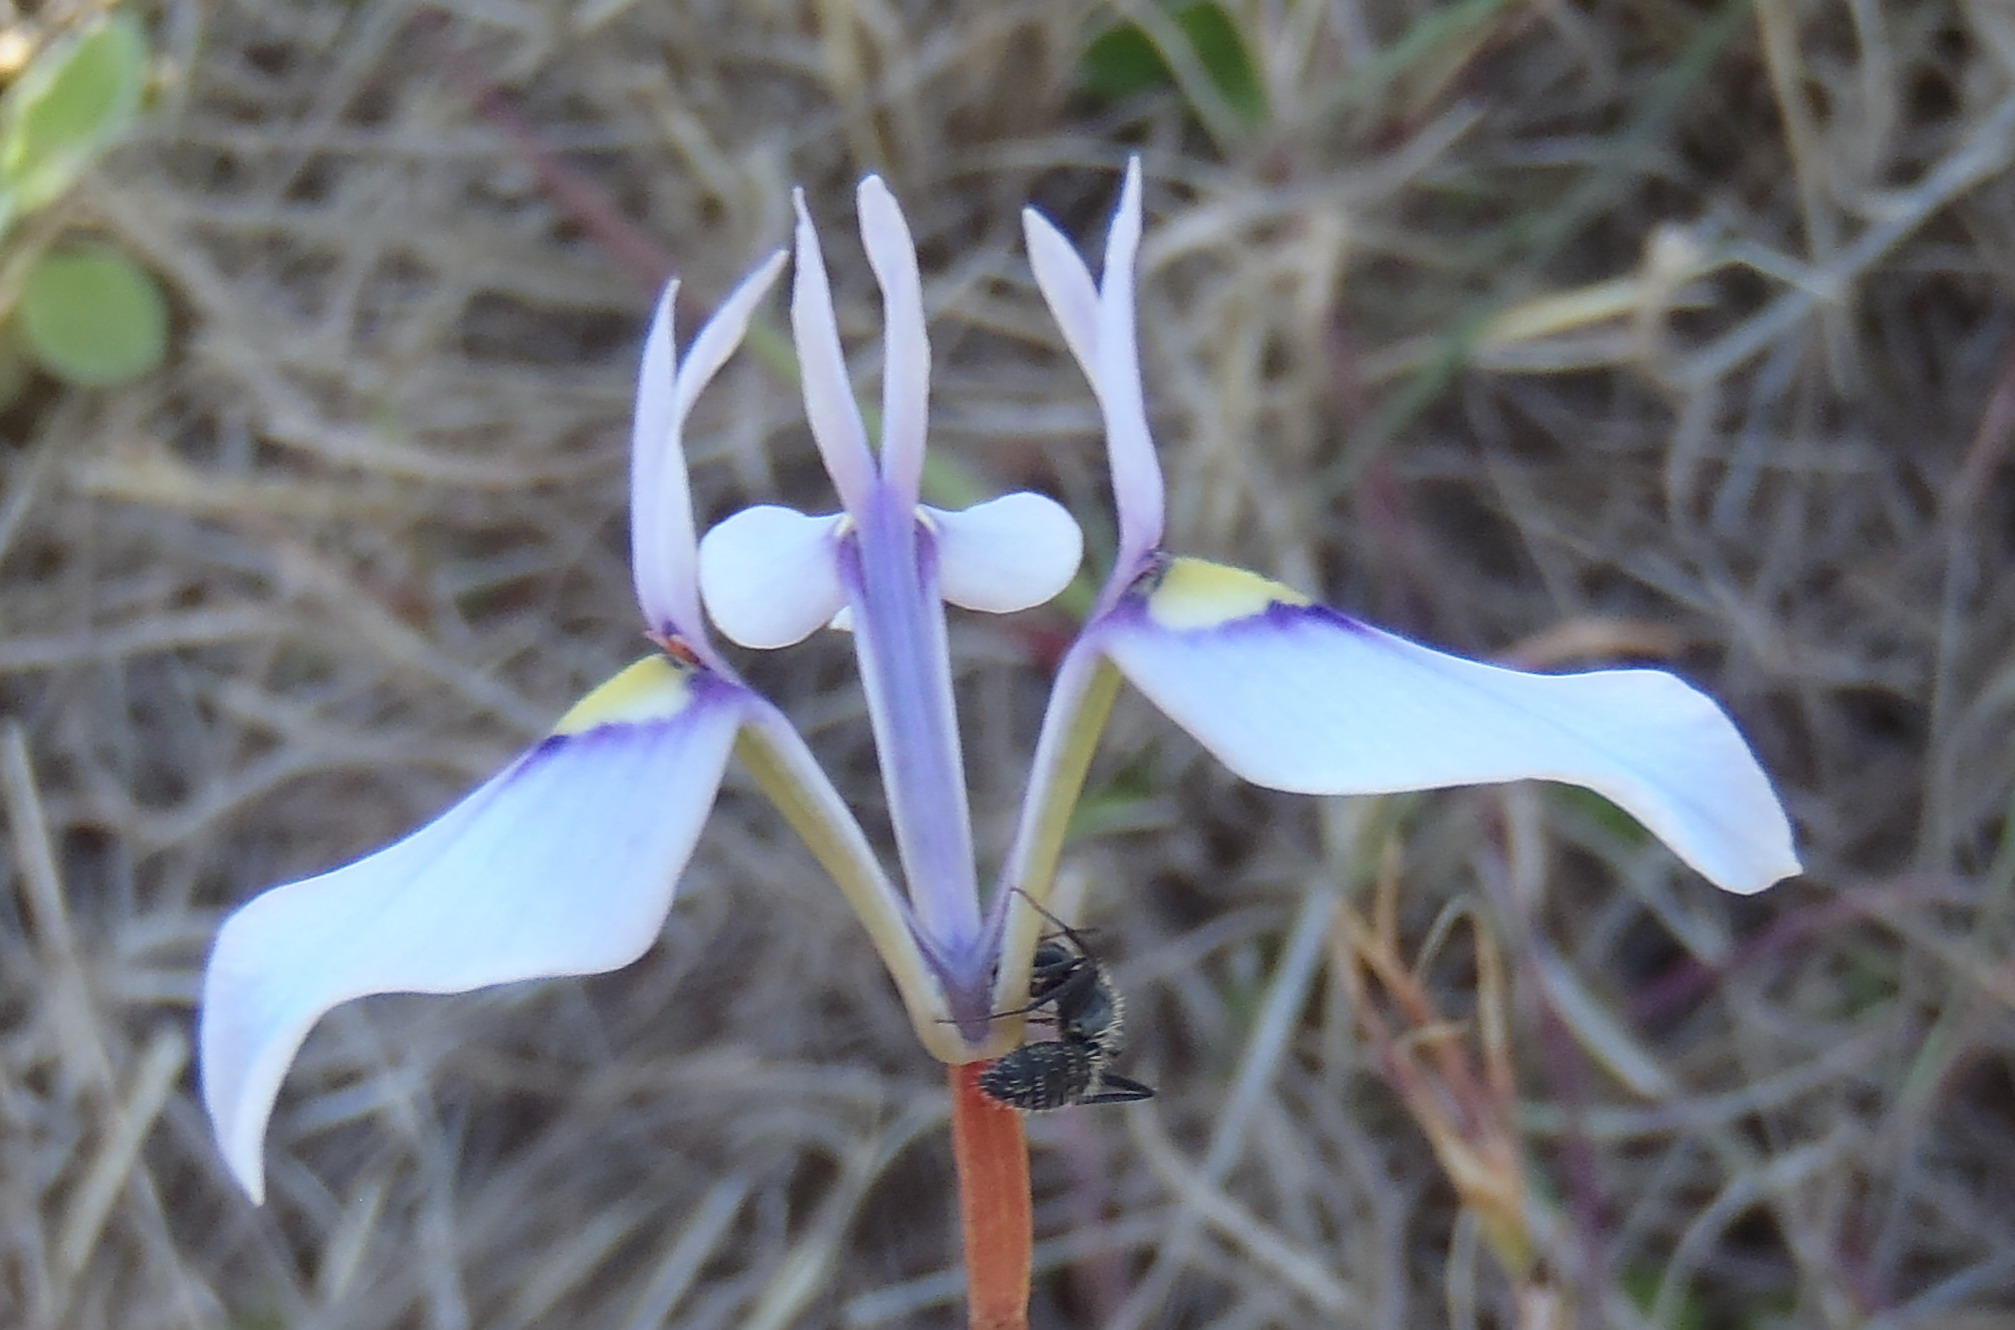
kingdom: Plantae
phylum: Tracheophyta
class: Liliopsida
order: Asparagales
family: Iridaceae
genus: Moraea
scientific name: Moraea tripetala
